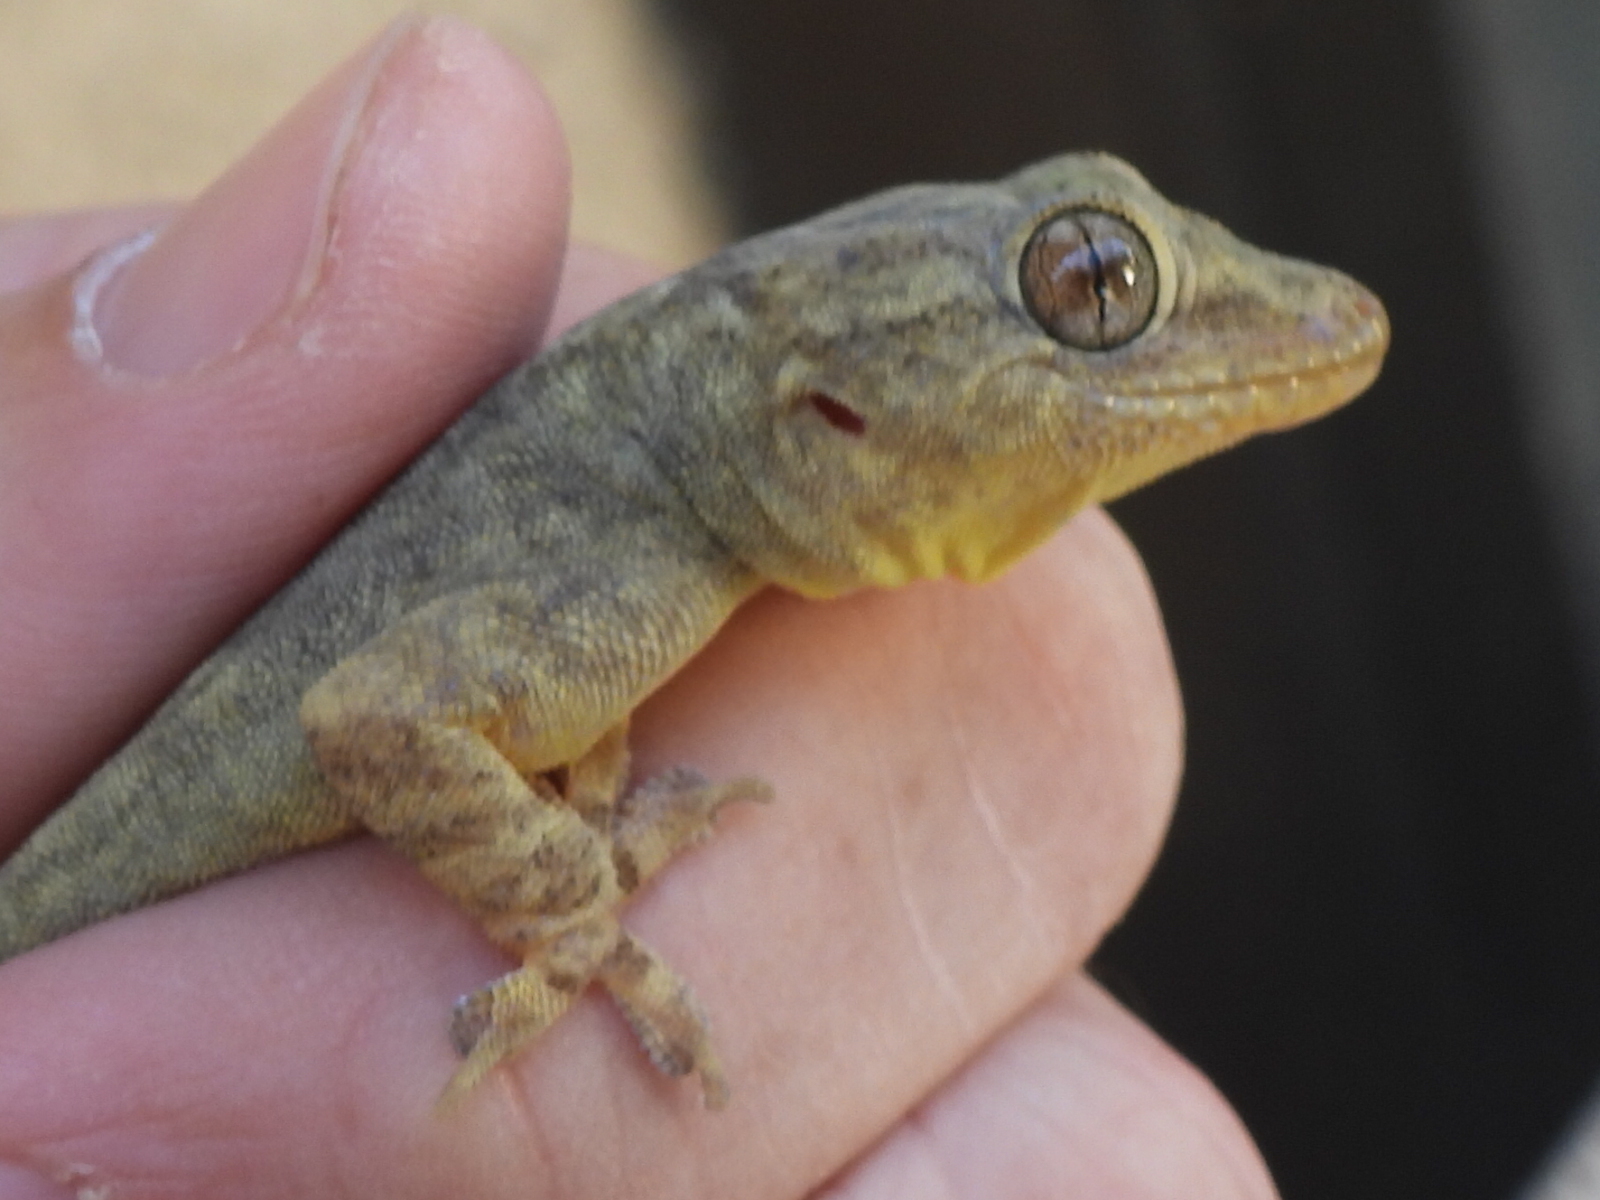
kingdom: Animalia
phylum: Chordata
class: Squamata
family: Gekkonidae
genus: Hemidactylus
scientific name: Hemidactylus flaviviridis
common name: Northern house gecko
